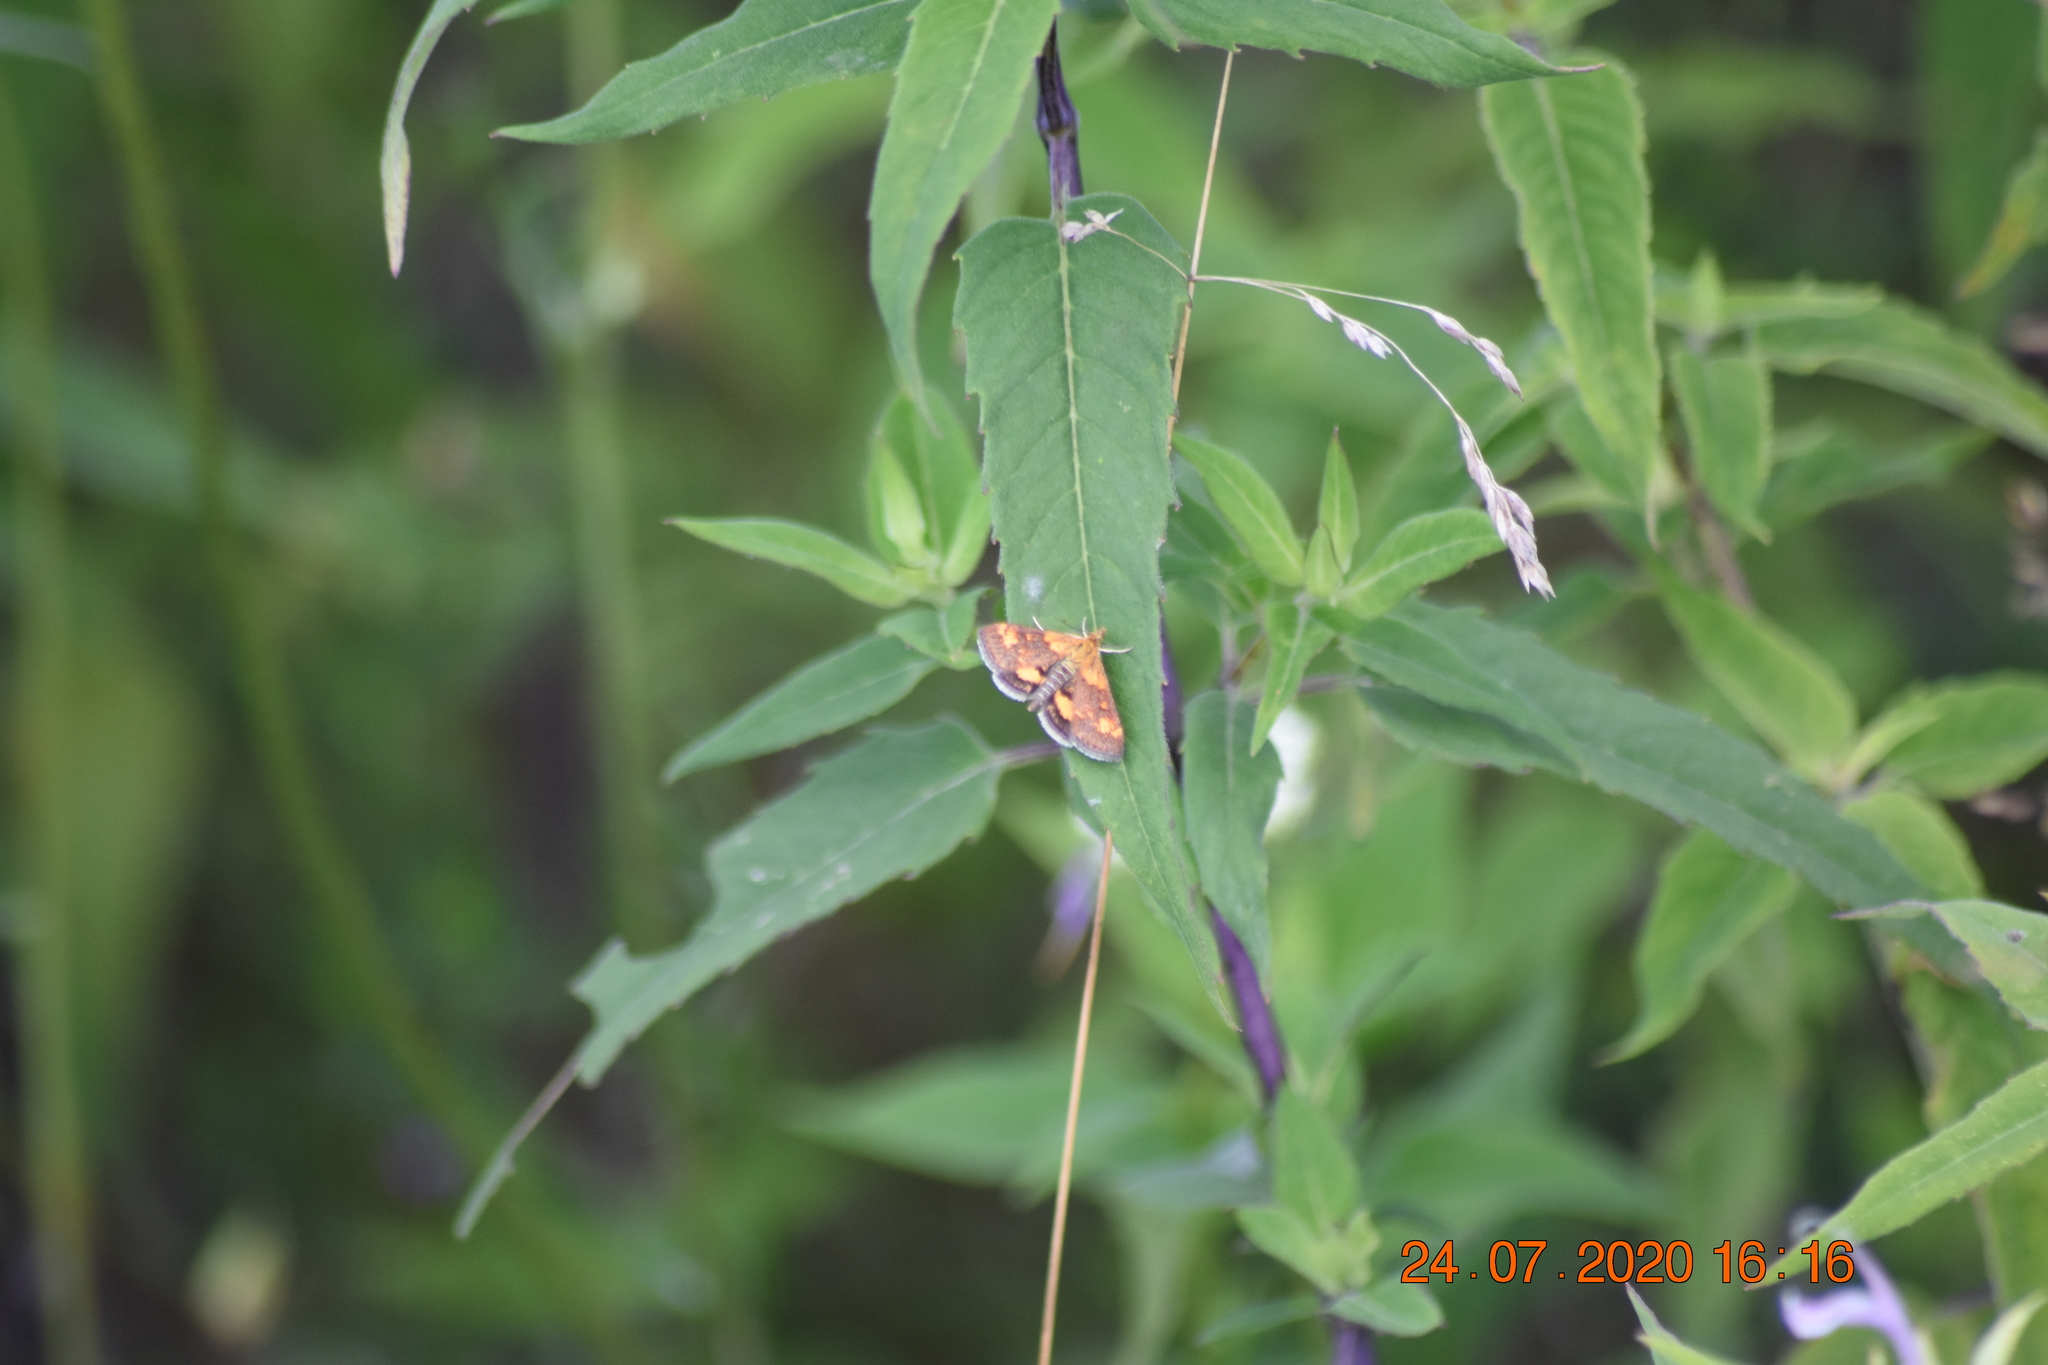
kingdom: Animalia
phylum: Arthropoda
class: Insecta
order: Lepidoptera
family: Crambidae
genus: Pyrausta
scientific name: Pyrausta orphisalis
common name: Orange mint moth
